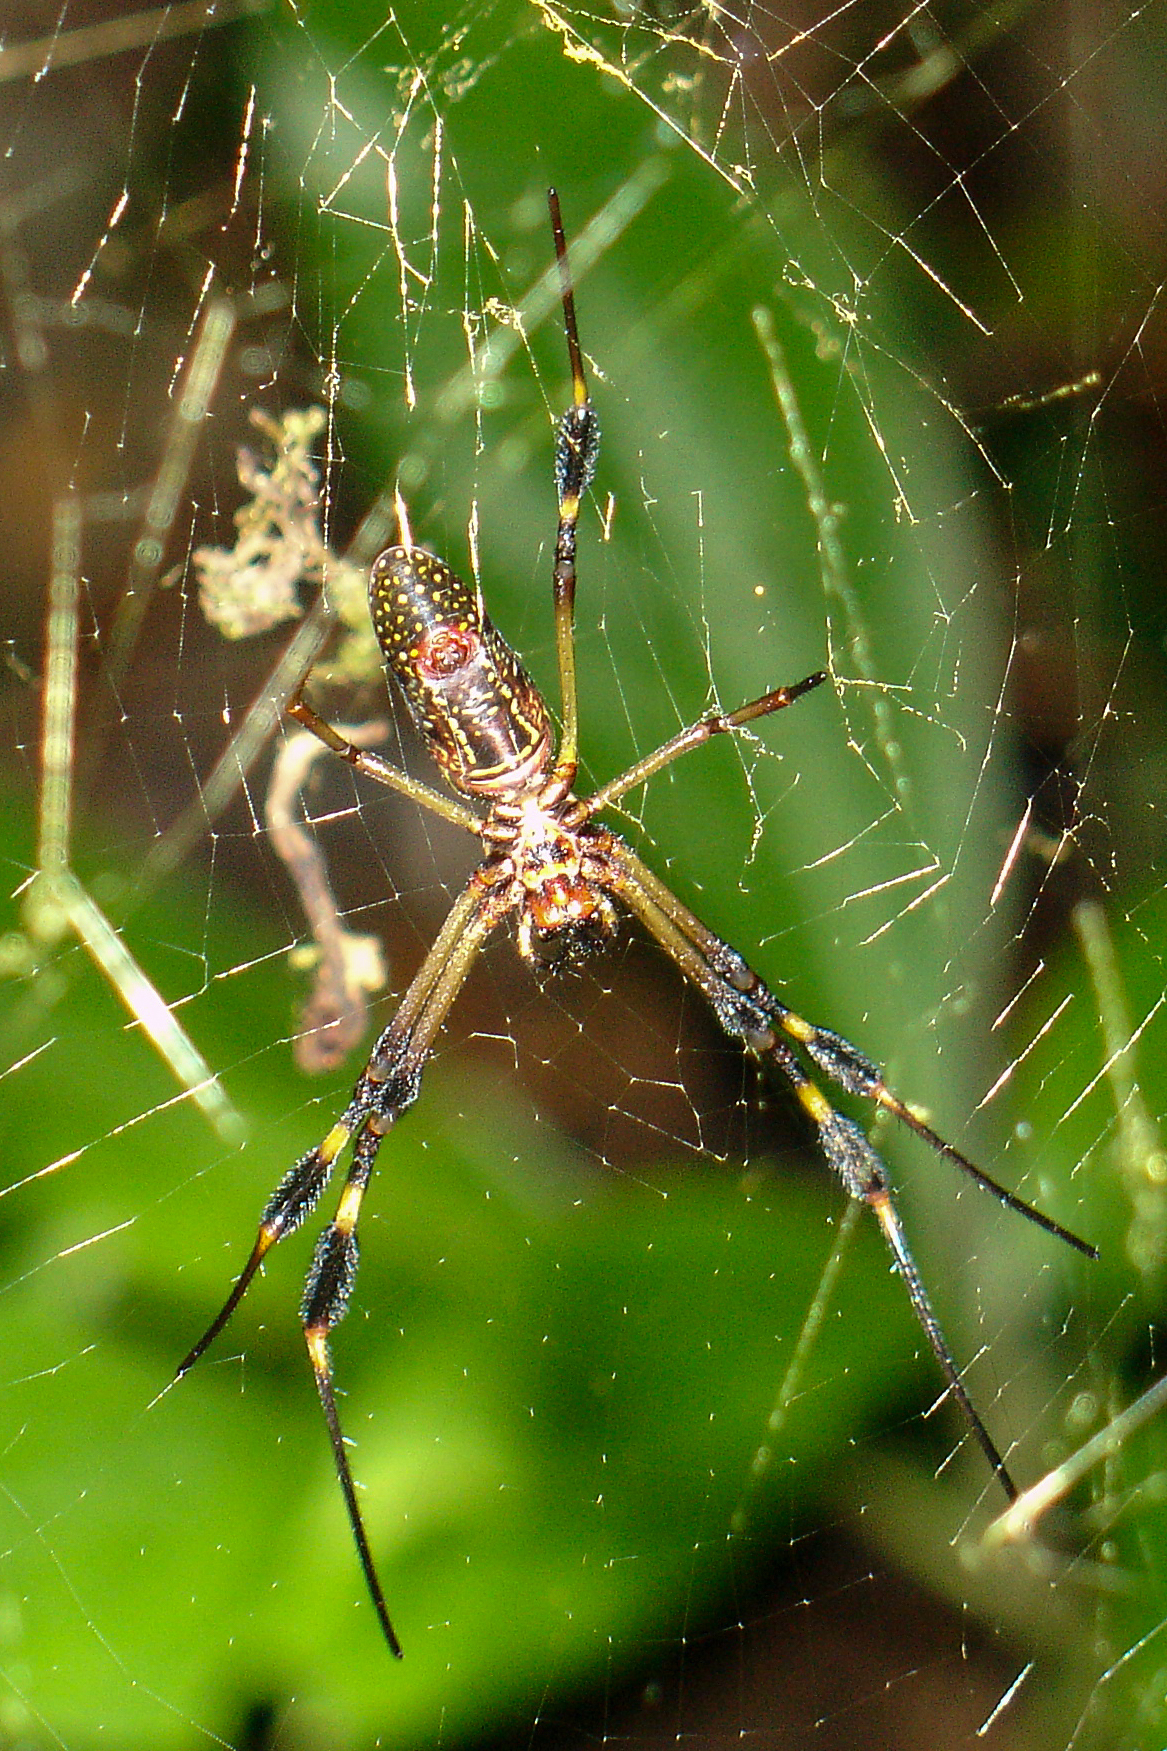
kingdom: Animalia
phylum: Arthropoda
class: Arachnida
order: Araneae
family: Araneidae
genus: Trichonephila
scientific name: Trichonephila clavipes
